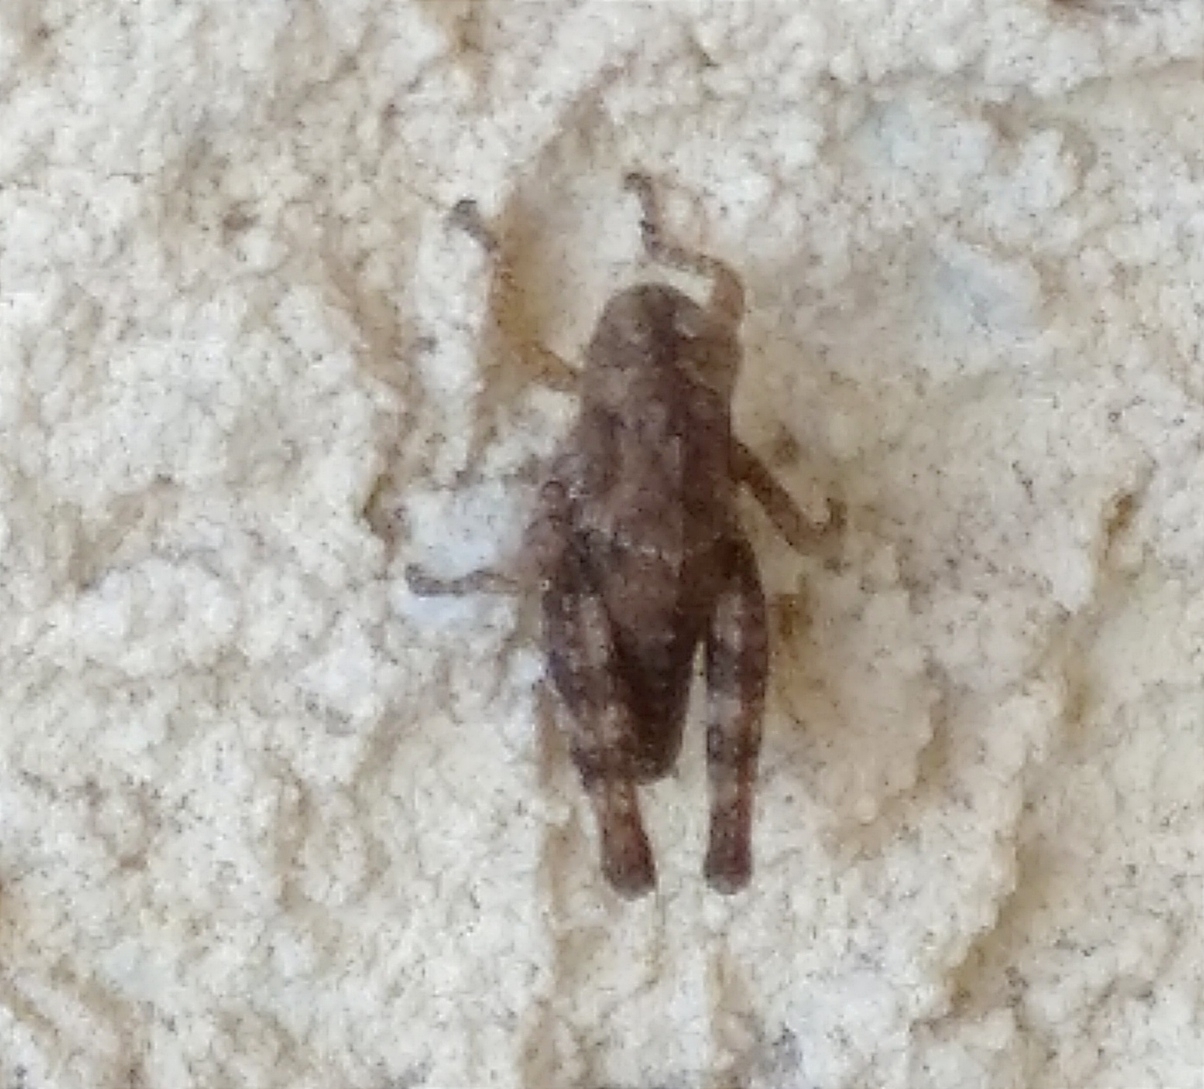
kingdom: Animalia
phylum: Arthropoda
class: Insecta
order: Orthoptera
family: Acrididae
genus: Pezotettix
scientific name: Pezotettix giornae
